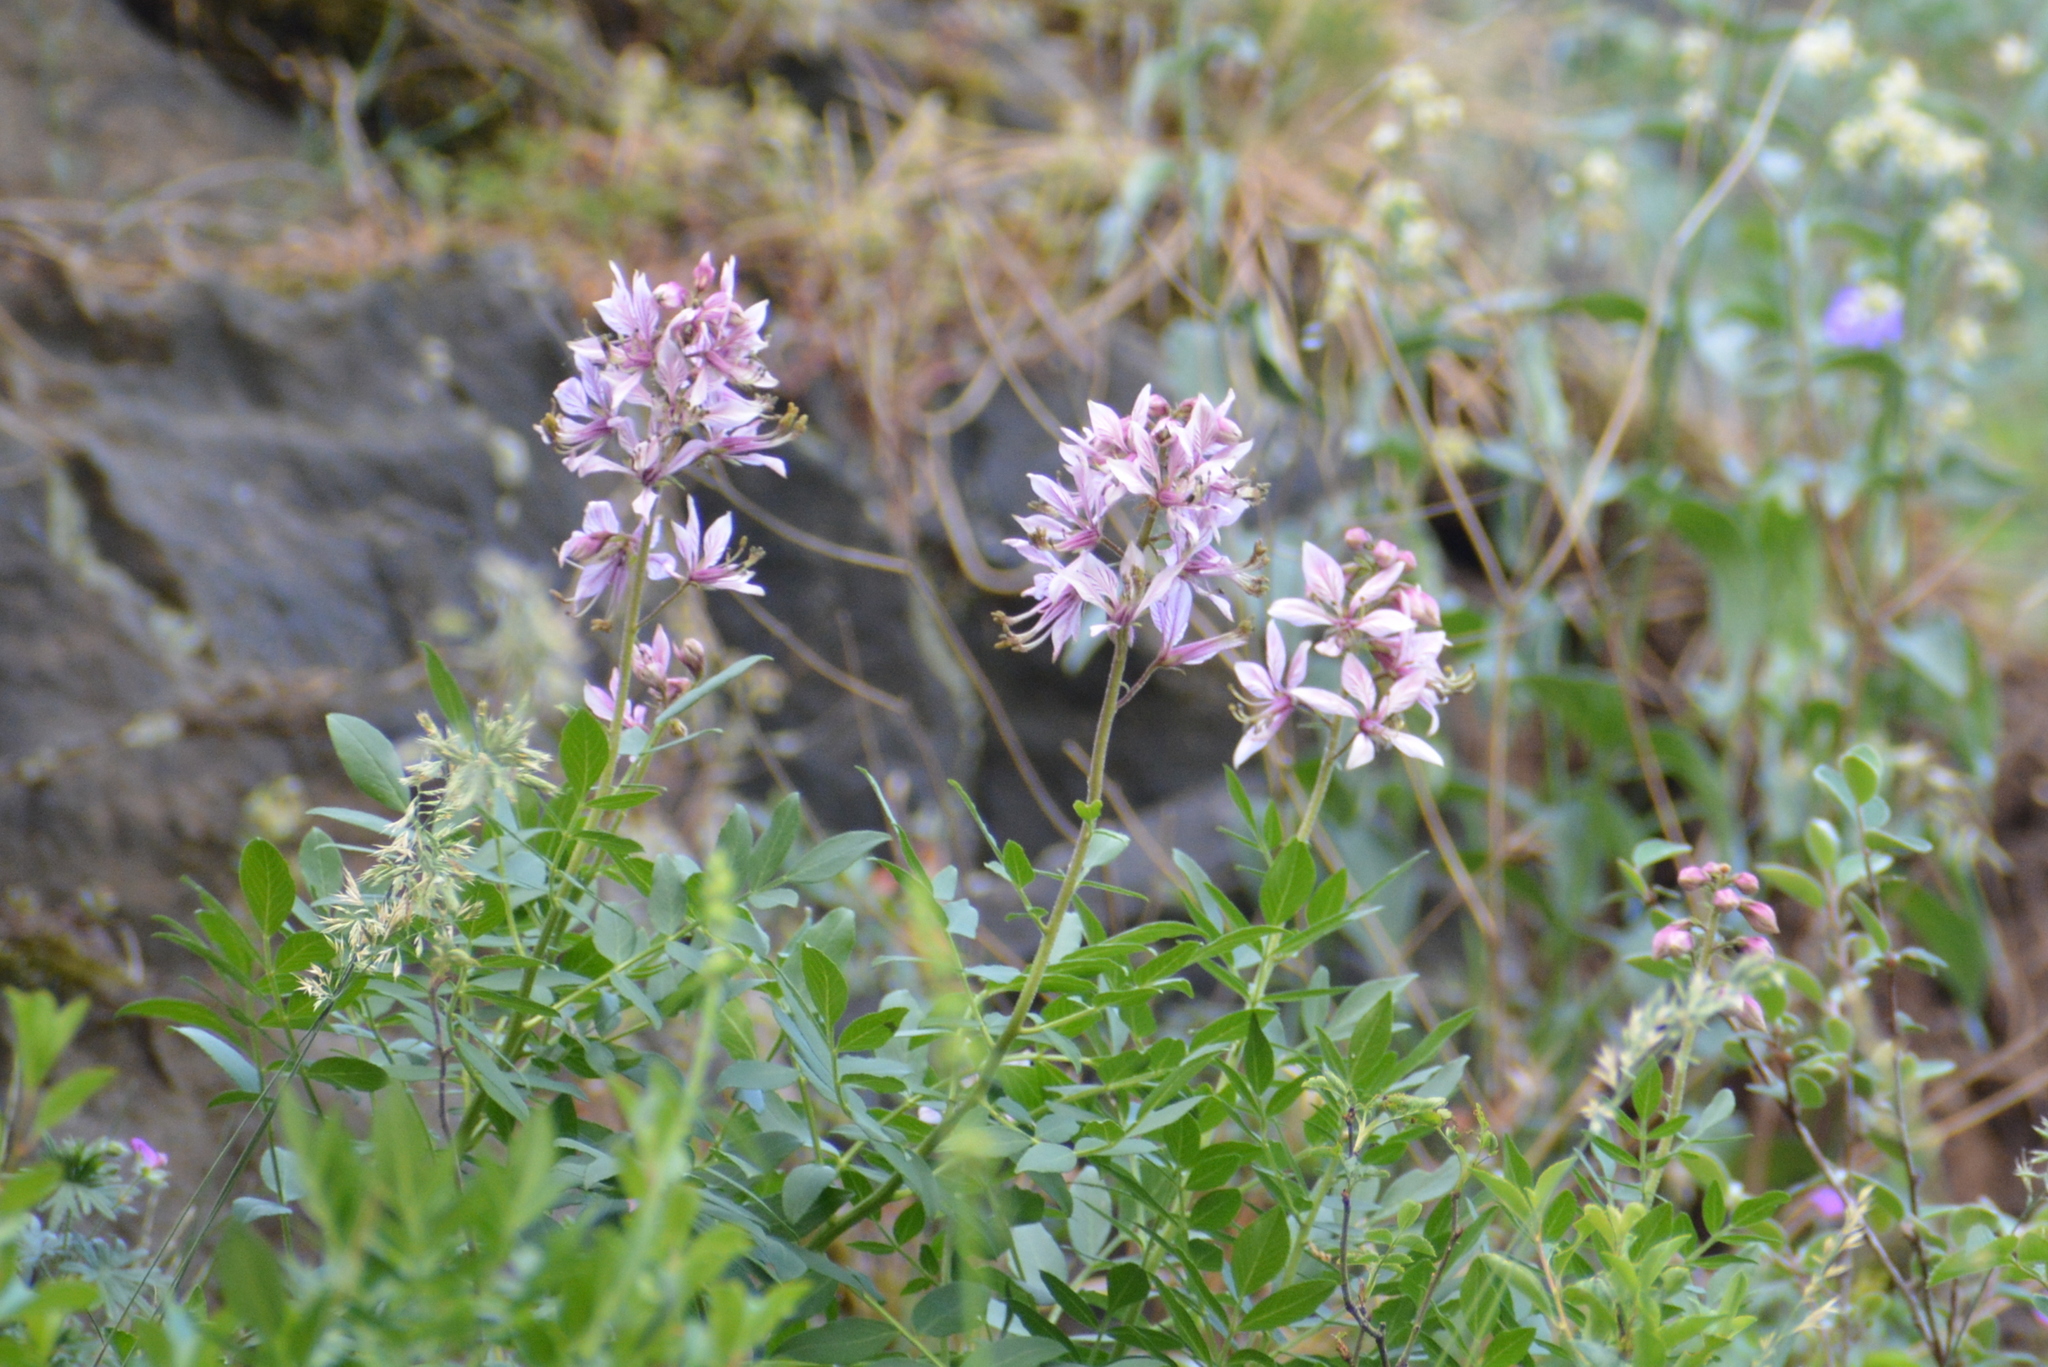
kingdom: Plantae
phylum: Tracheophyta
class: Magnoliopsida
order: Sapindales
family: Rutaceae
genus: Dictamnus
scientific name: Dictamnus albus
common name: Gasplant
